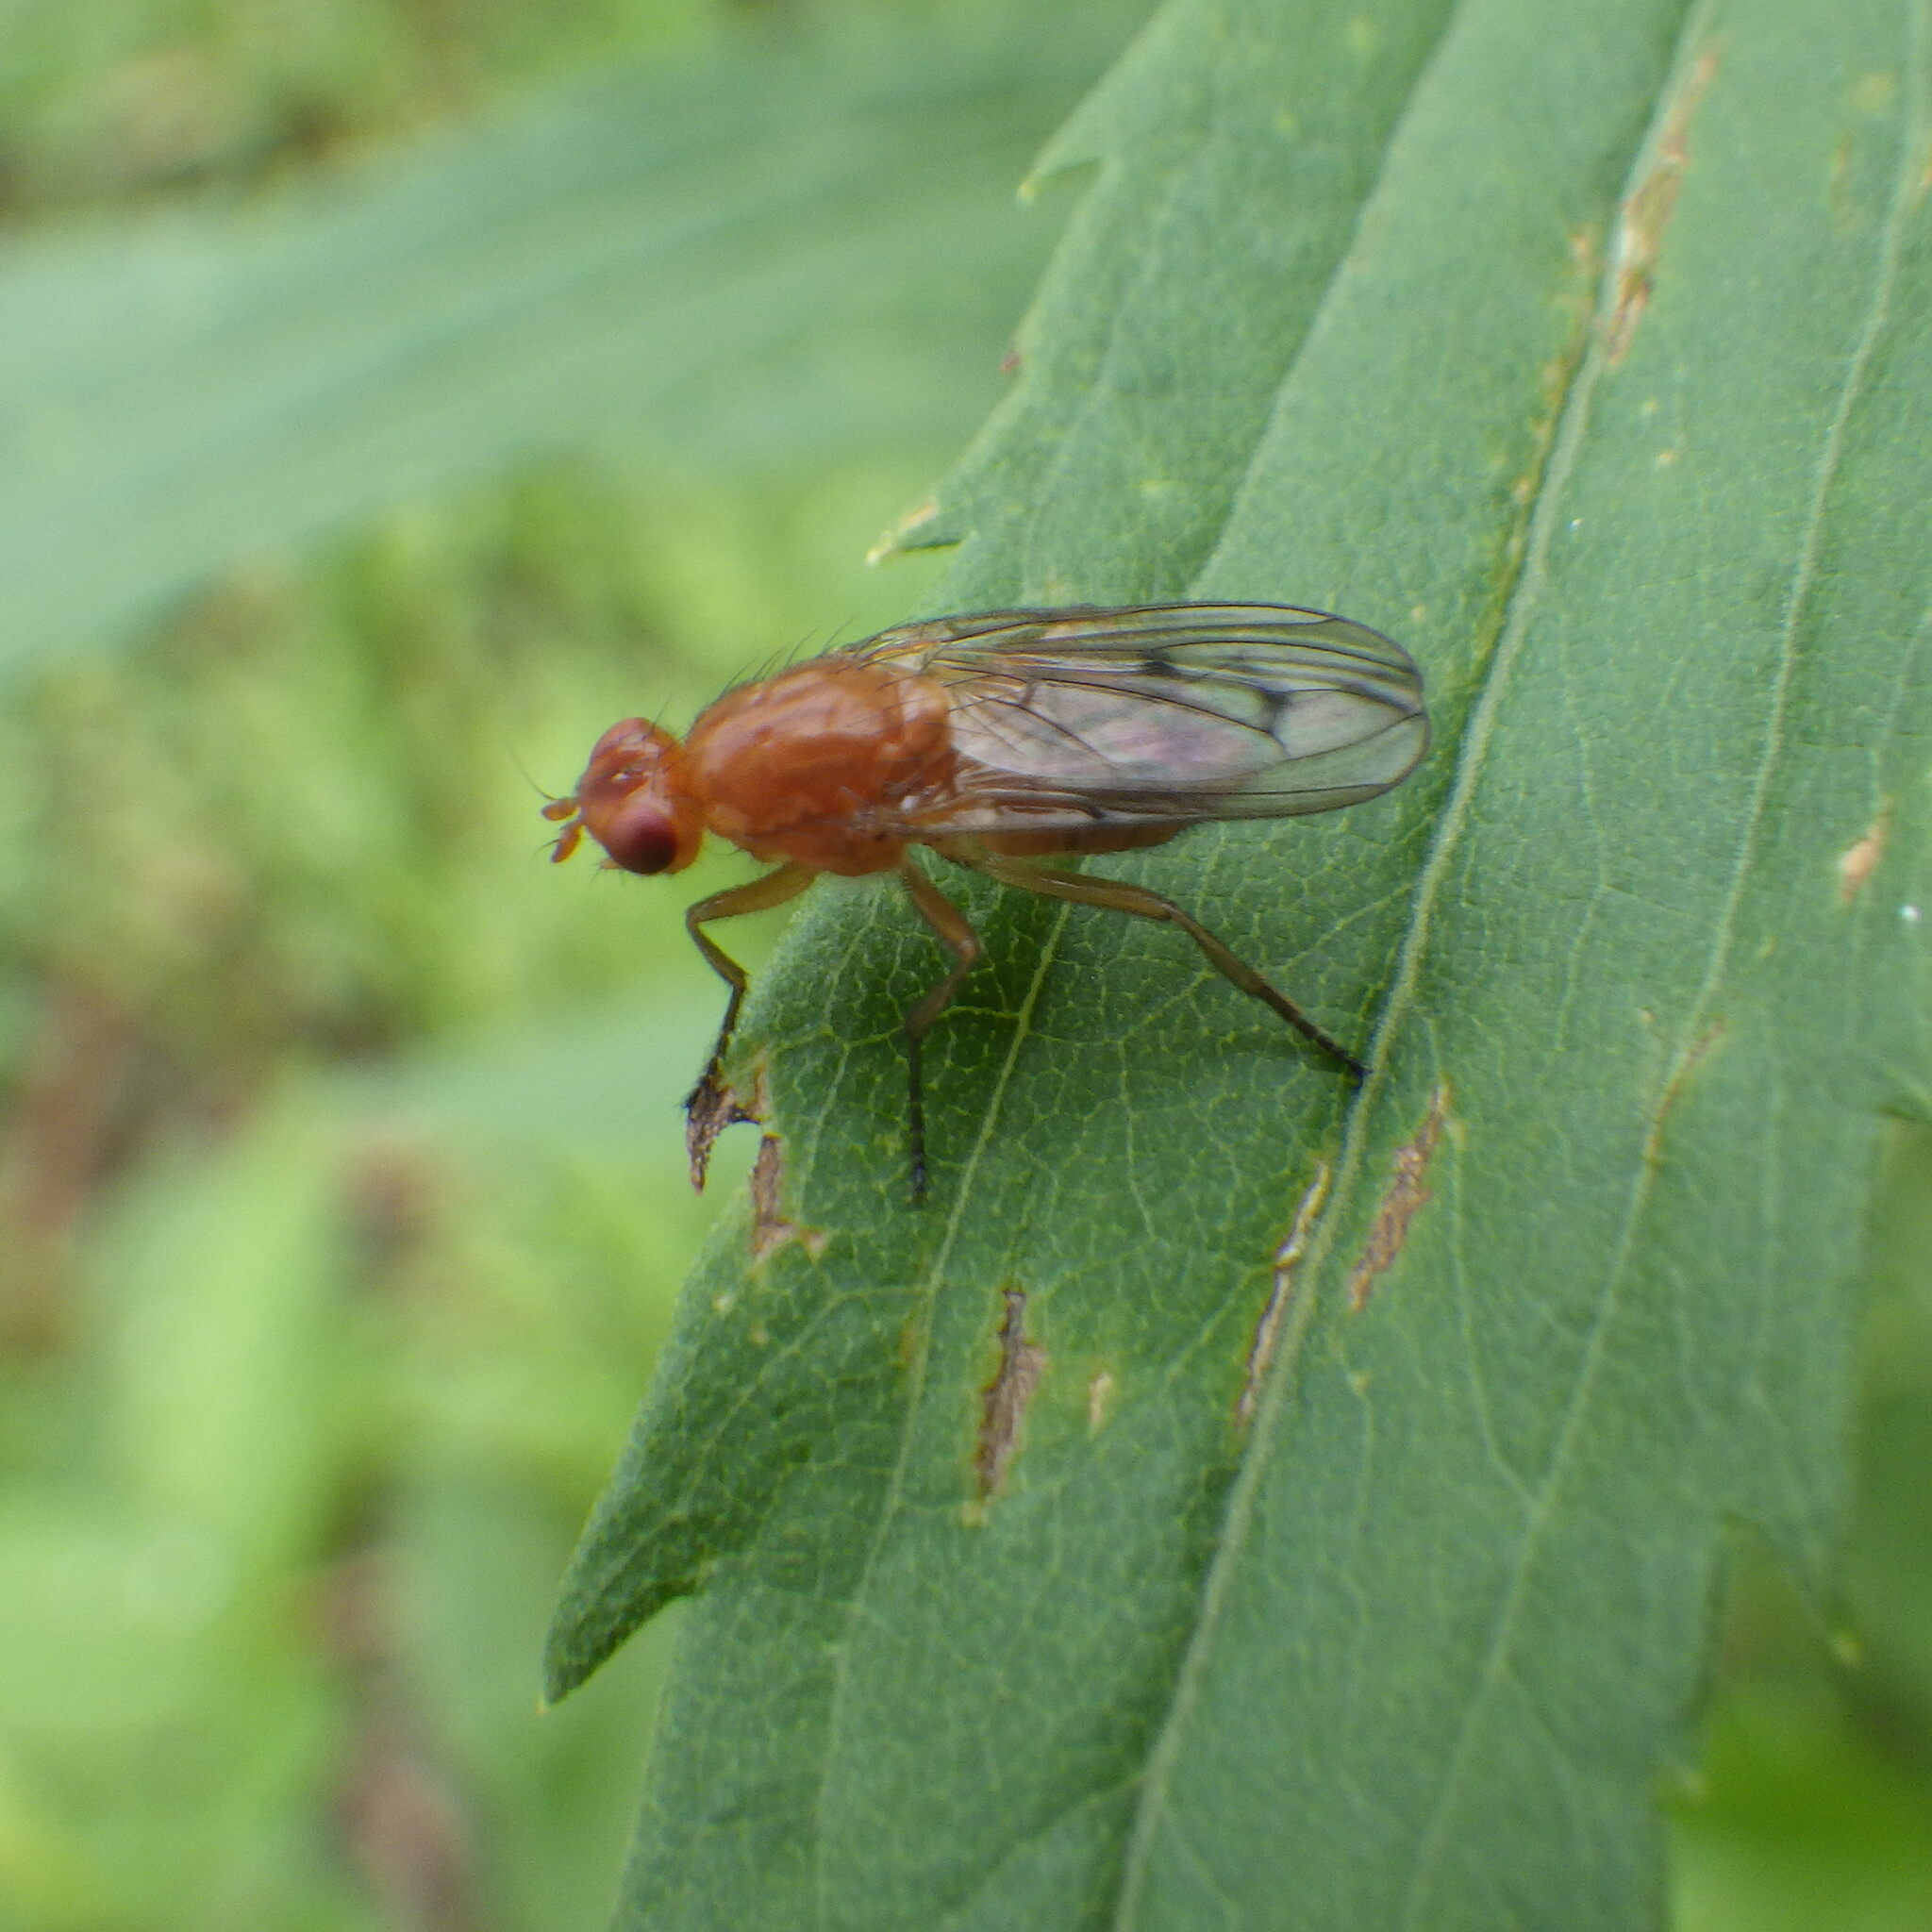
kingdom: Animalia
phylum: Arthropoda
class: Insecta
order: Diptera
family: Dryomyzidae
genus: Dryomyza
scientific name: Dryomyza anilis
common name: Marsh fly
